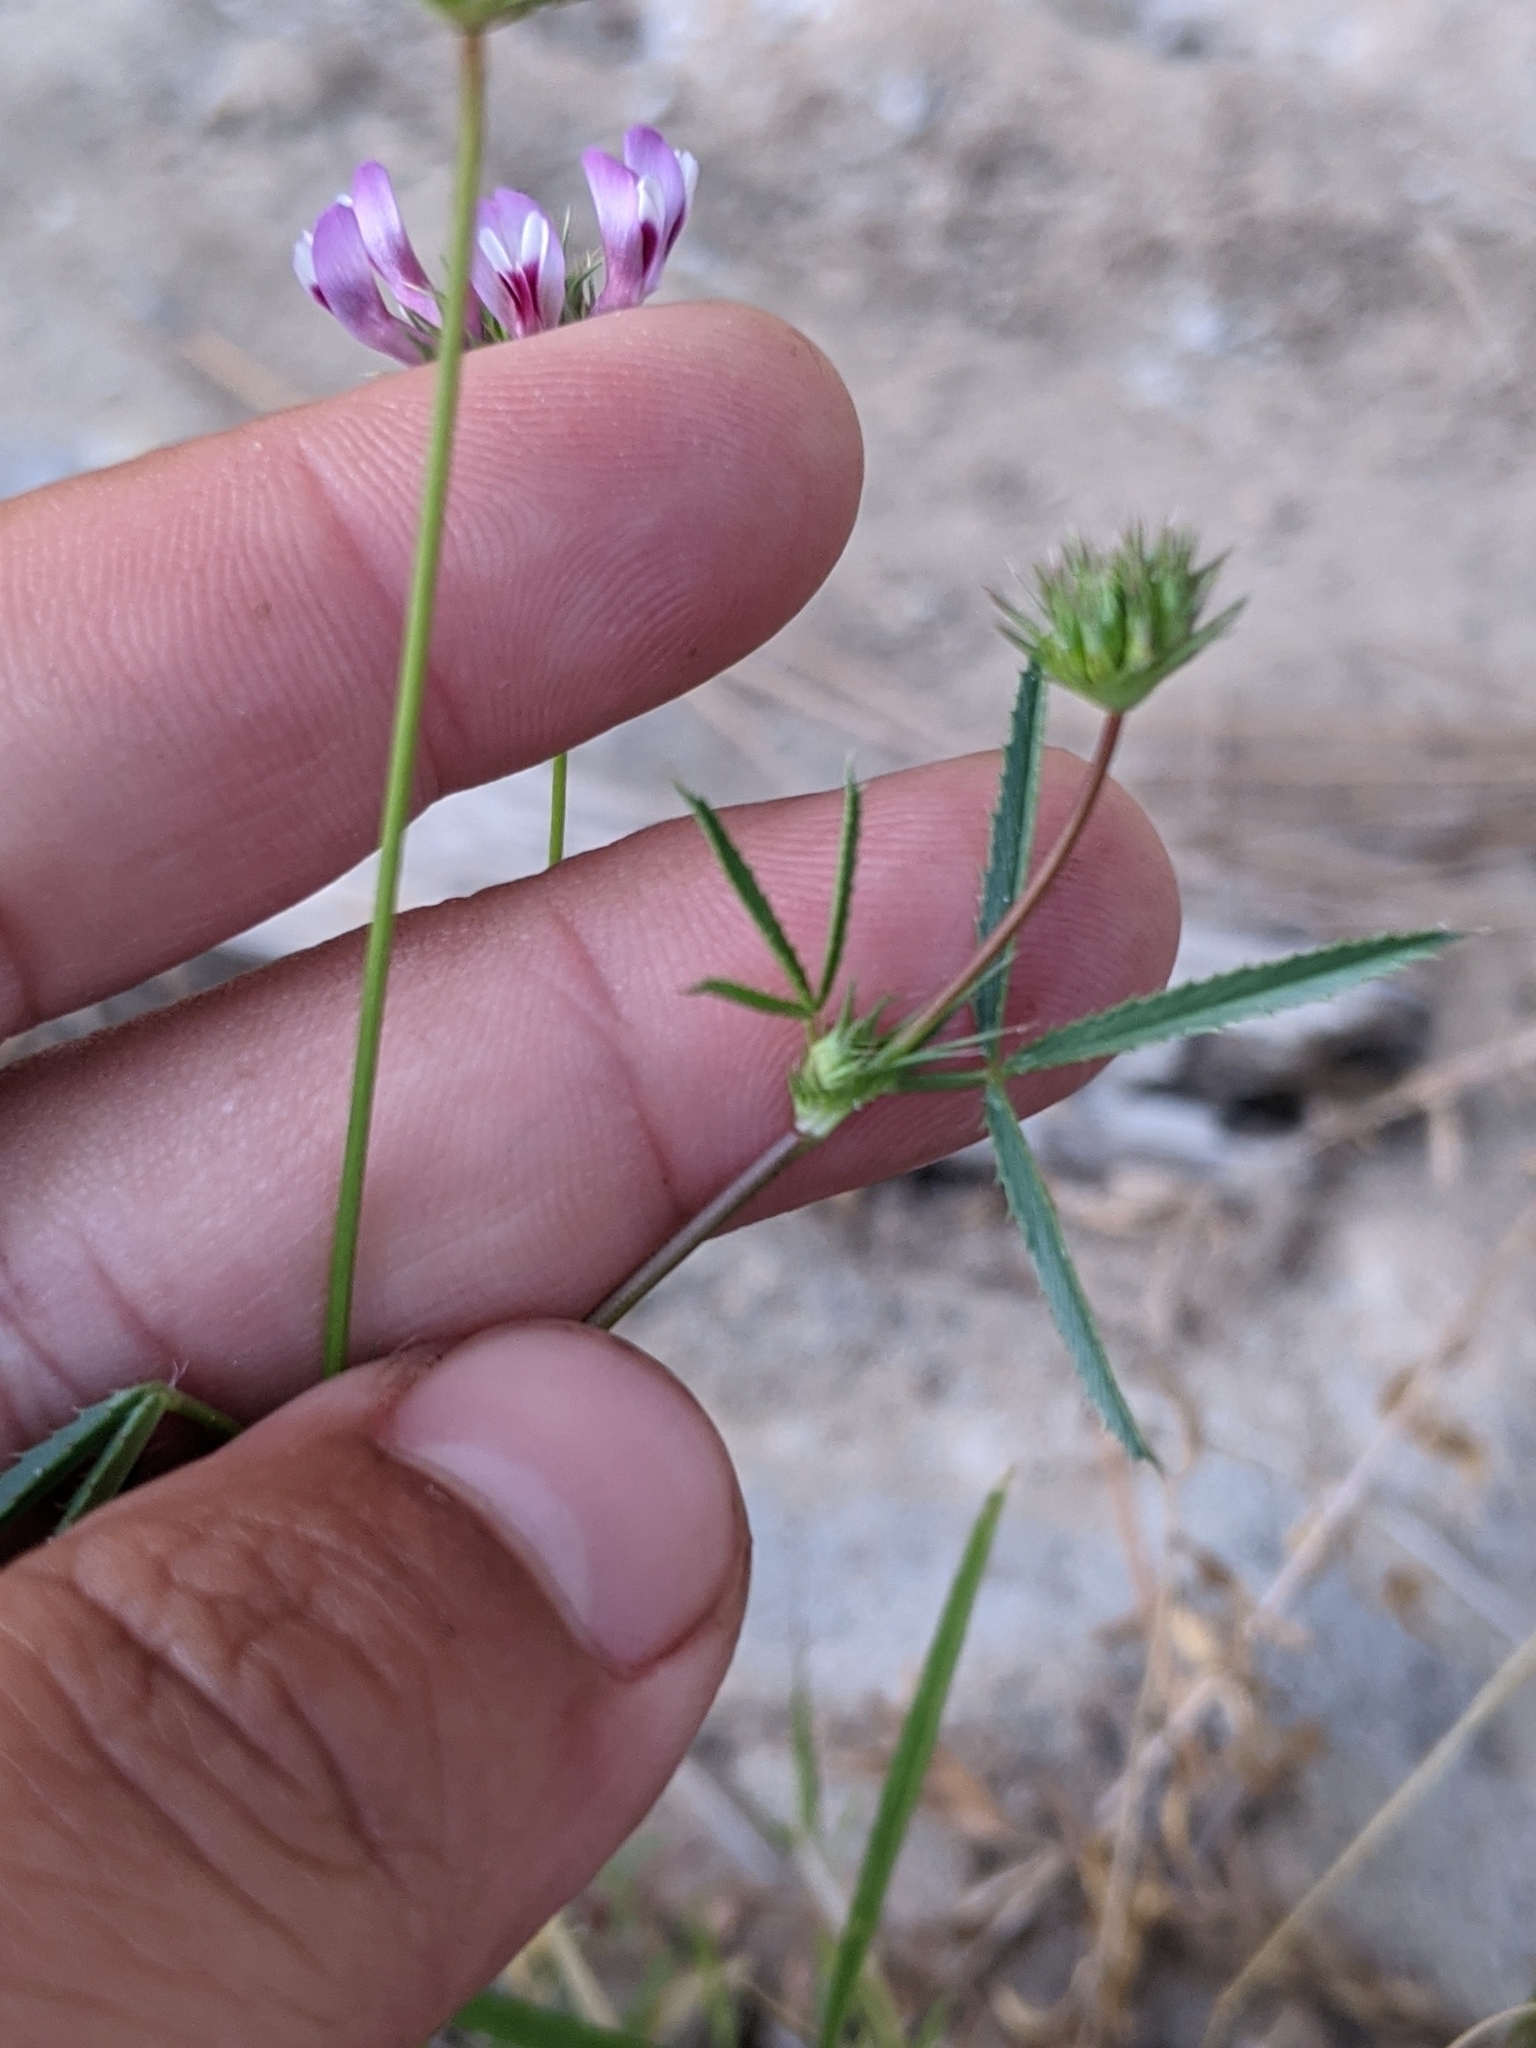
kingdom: Plantae
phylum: Tracheophyta
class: Magnoliopsida
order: Fabales
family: Fabaceae
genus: Trifolium
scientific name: Trifolium willdenovii
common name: Tomcat clover
